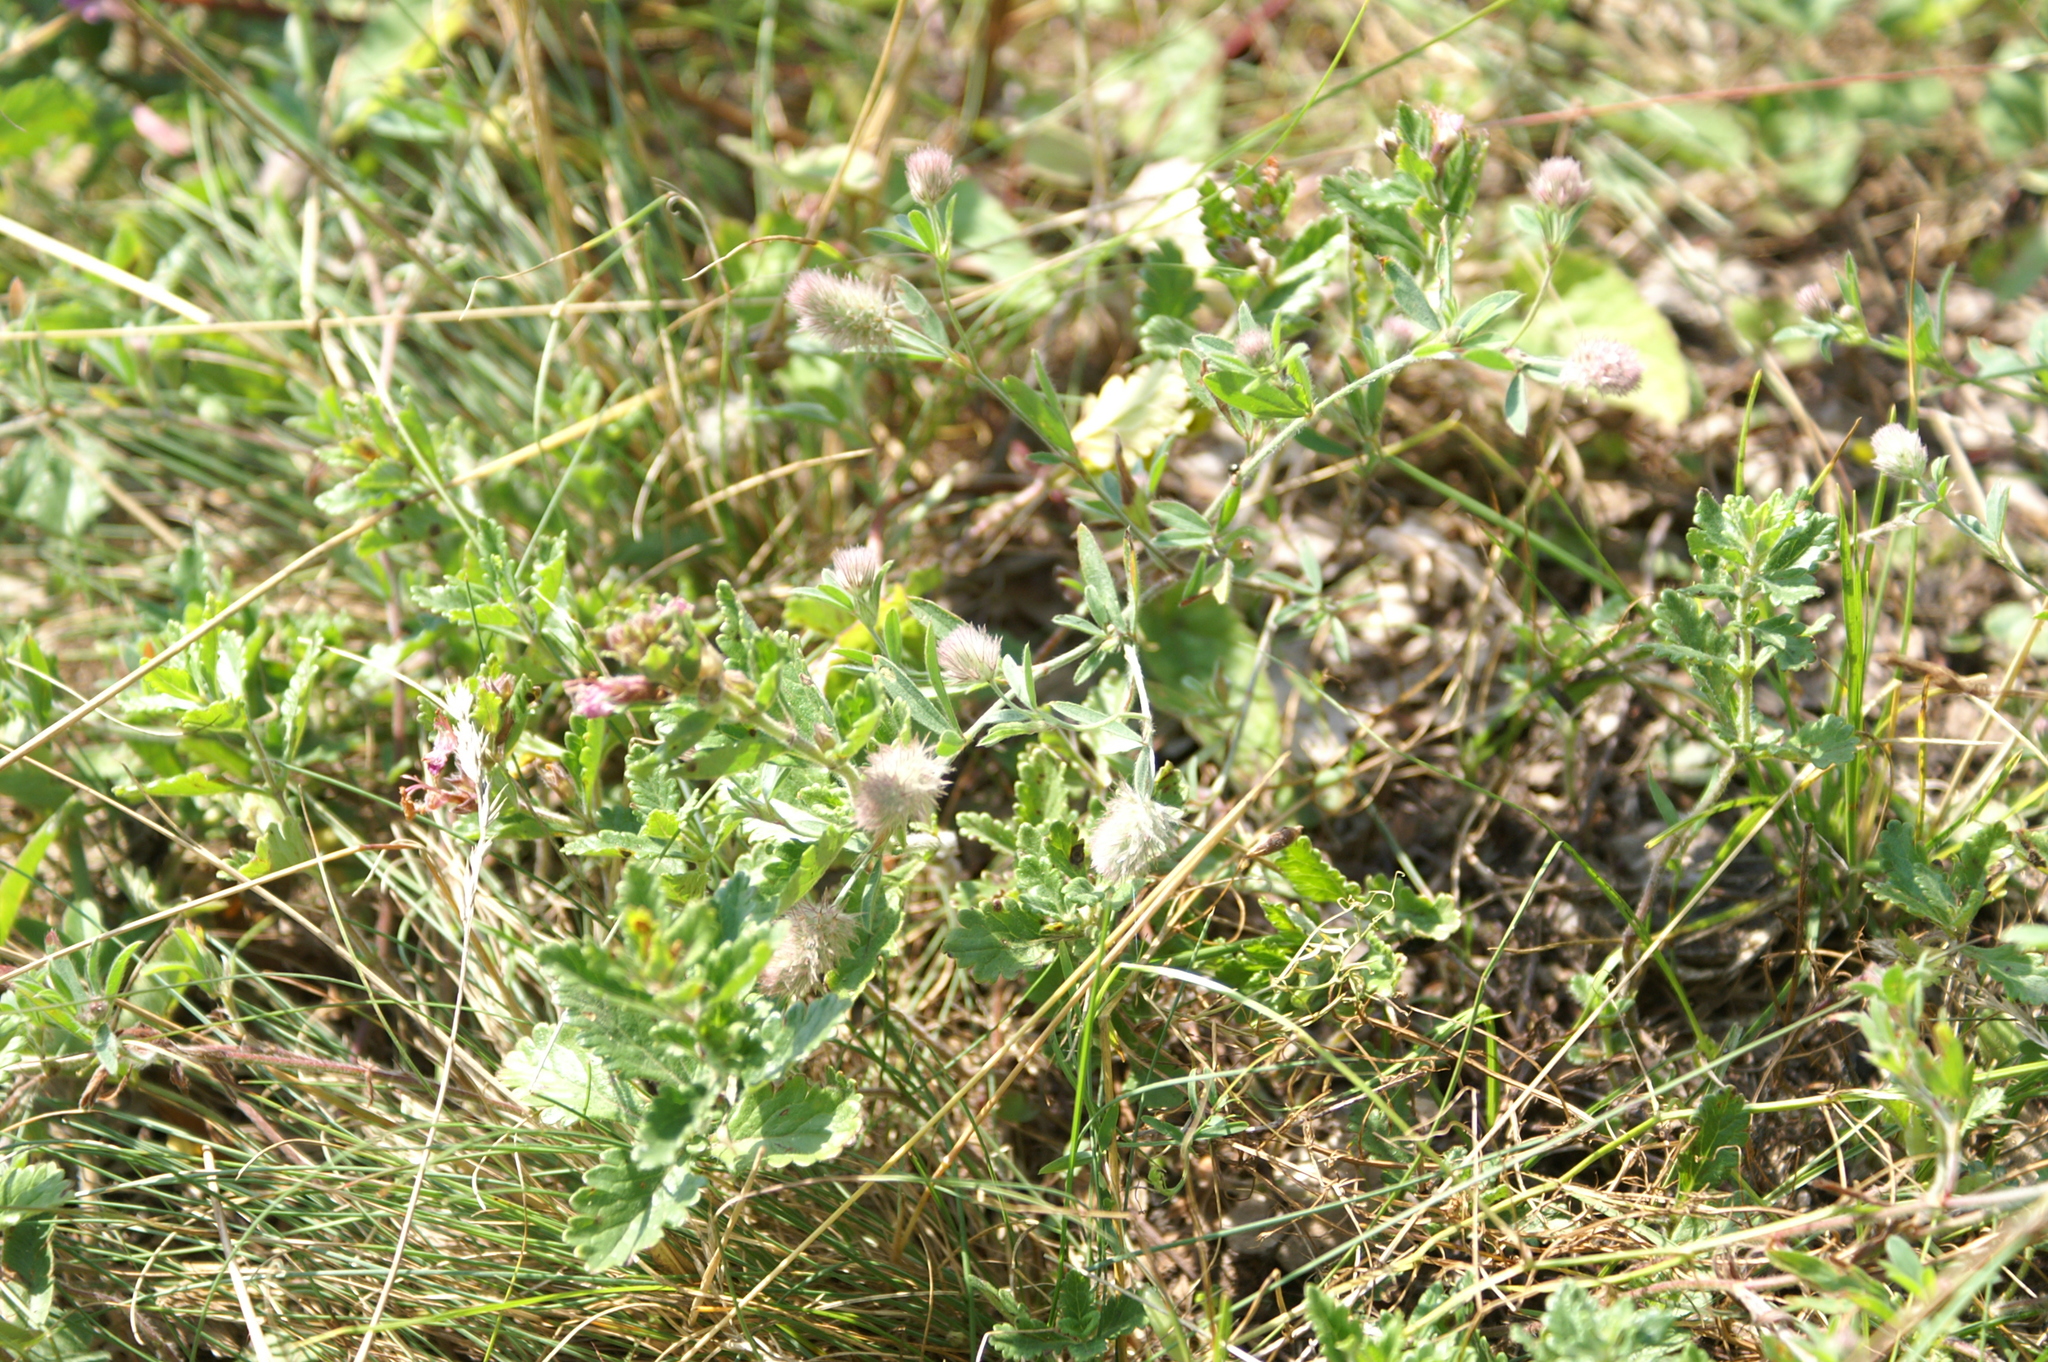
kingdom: Plantae
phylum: Tracheophyta
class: Magnoliopsida
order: Fabales
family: Fabaceae
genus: Trifolium
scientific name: Trifolium arvense
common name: Hare's-foot clover
